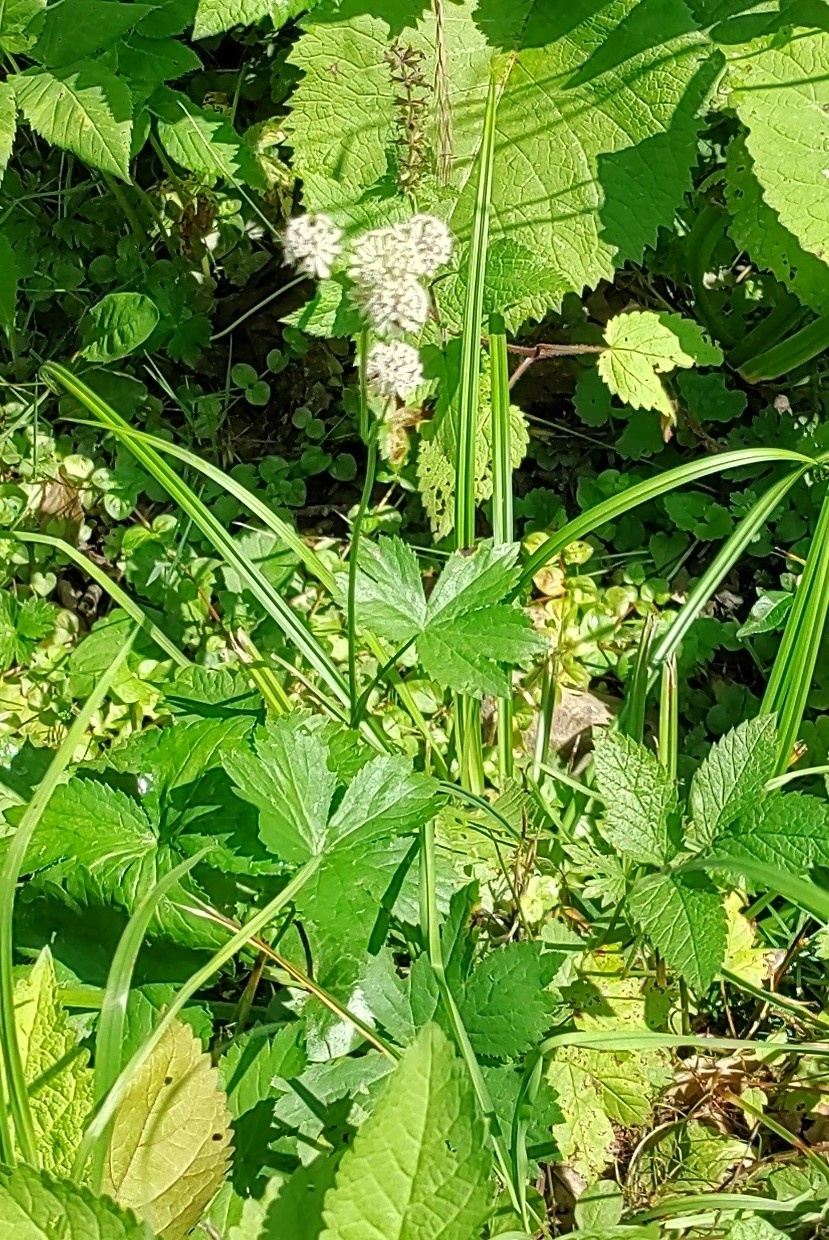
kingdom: Plantae
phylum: Tracheophyta
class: Magnoliopsida
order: Apiales
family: Apiaceae
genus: Astrantia
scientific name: Astrantia major
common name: Greater masterwort
